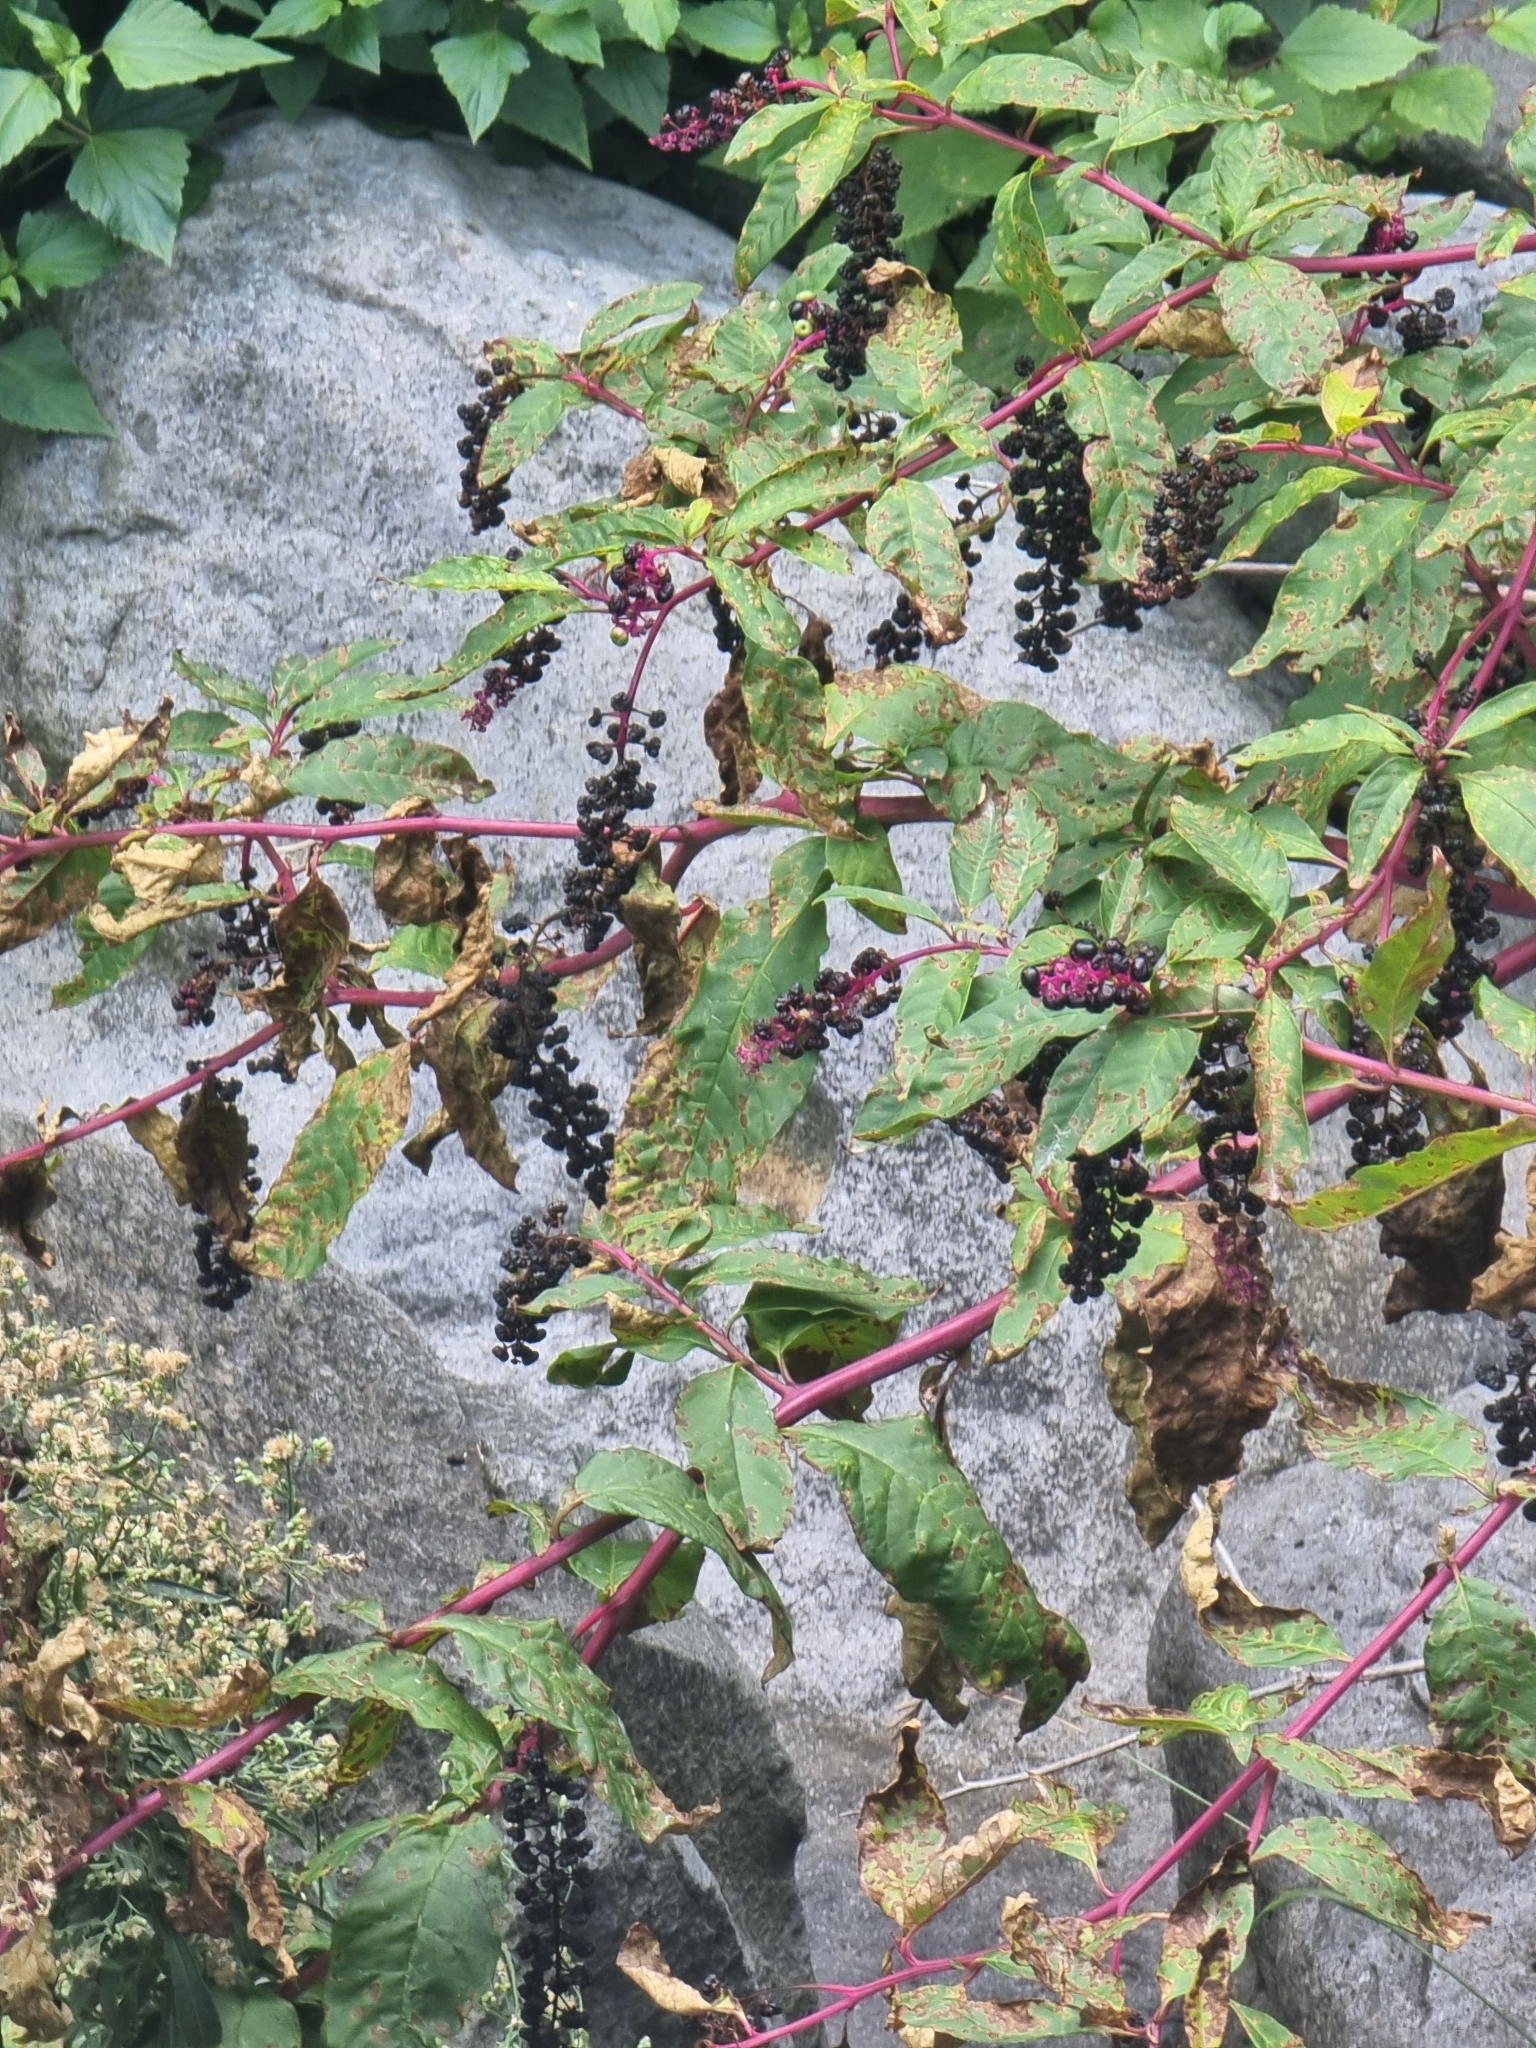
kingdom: Plantae
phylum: Tracheophyta
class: Magnoliopsida
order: Caryophyllales
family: Phytolaccaceae
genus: Phytolacca
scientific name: Phytolacca americana
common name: American pokeweed
